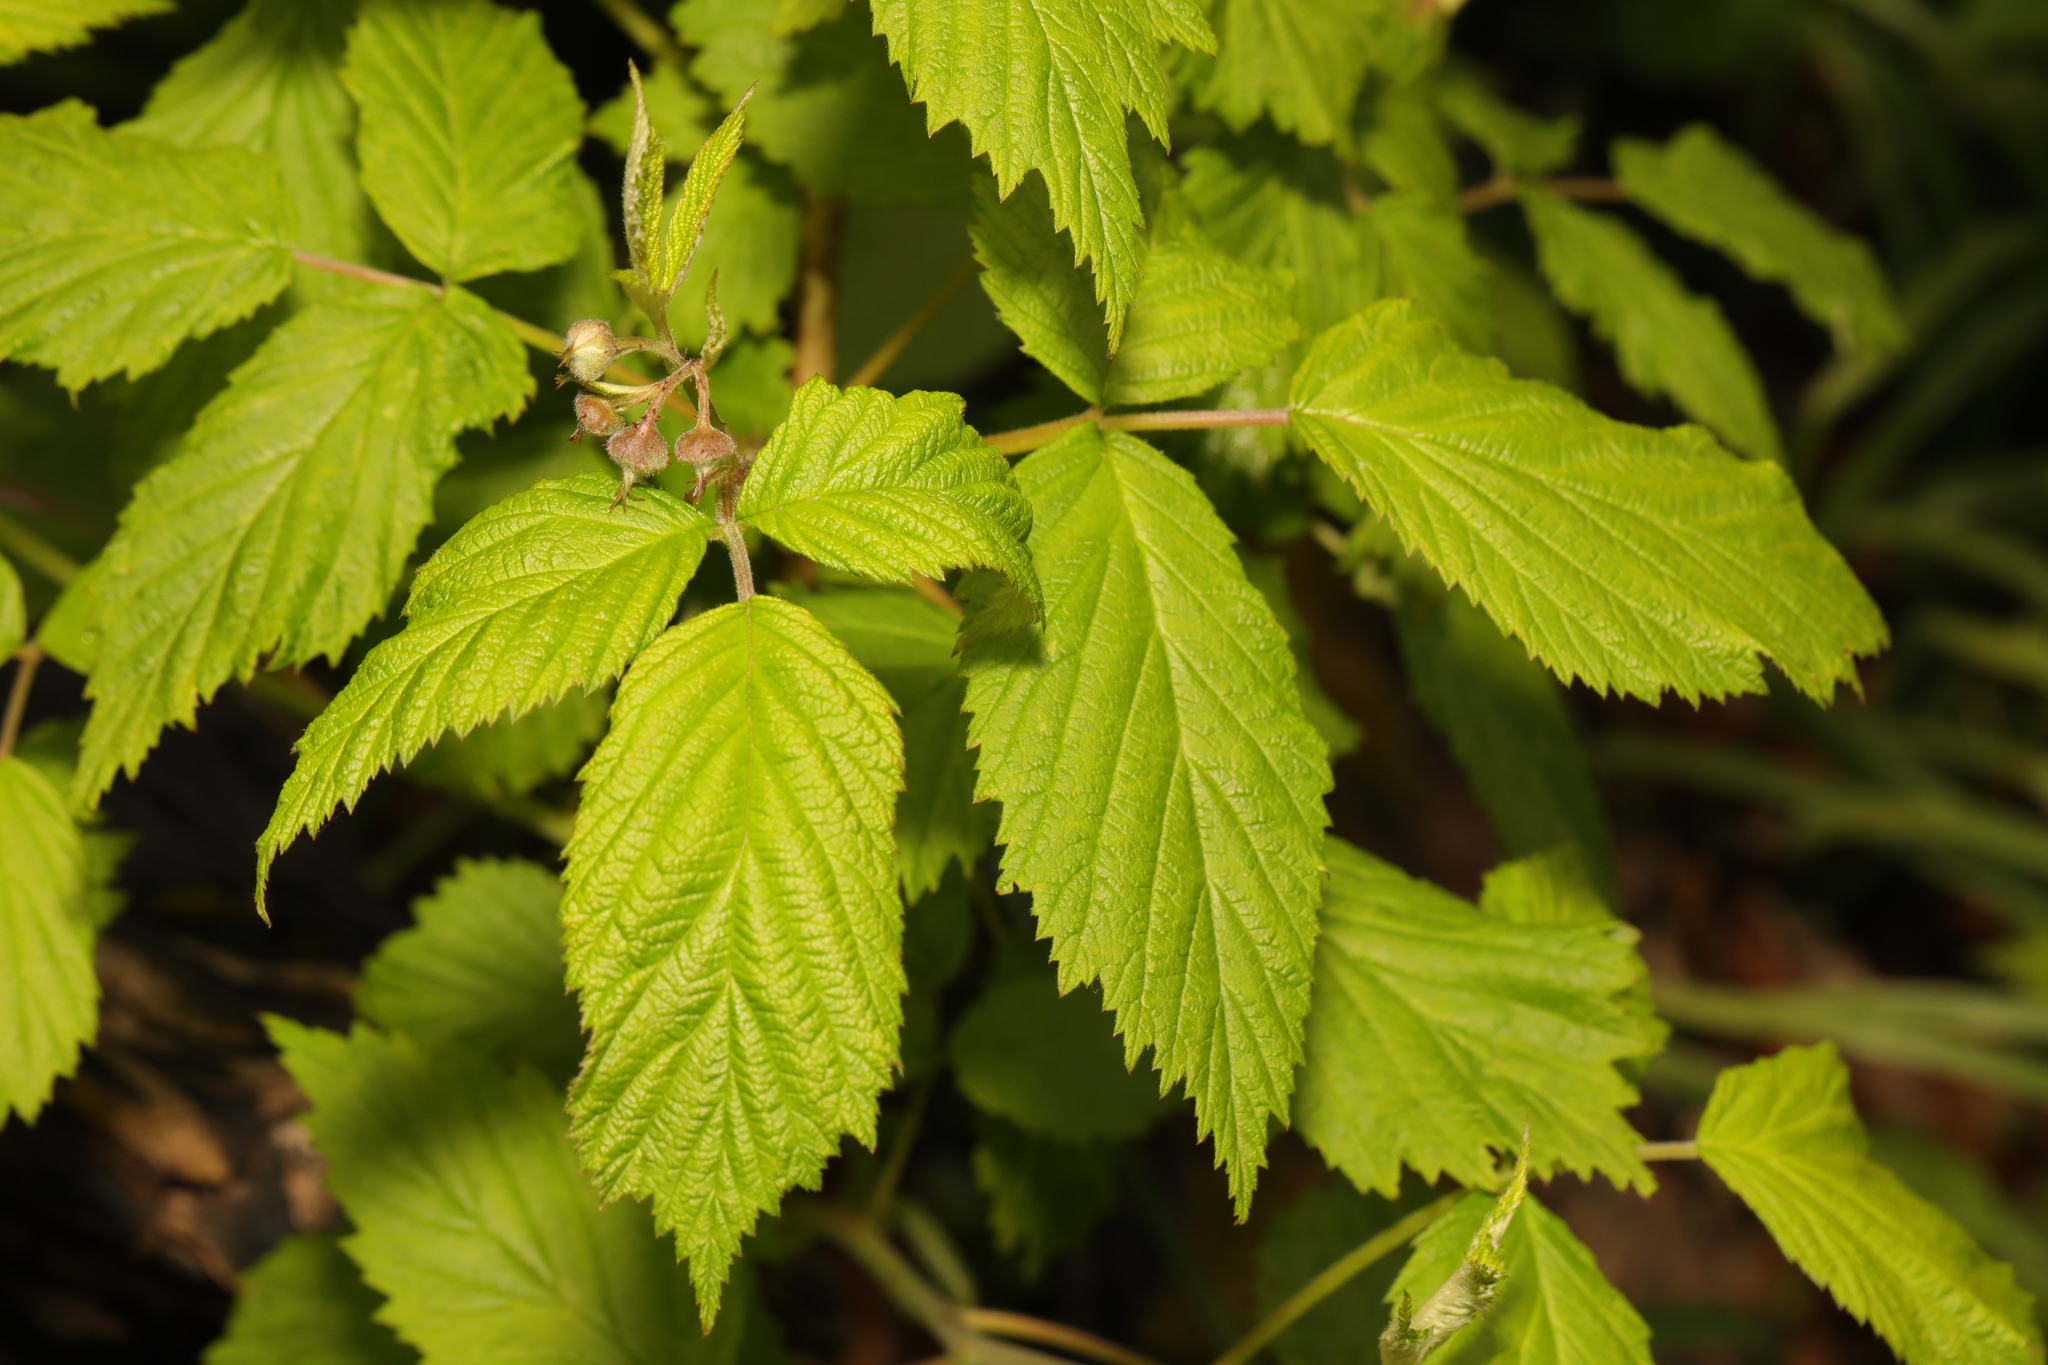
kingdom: Plantae
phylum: Tracheophyta
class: Magnoliopsida
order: Rosales
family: Rosaceae
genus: Rubus
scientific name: Rubus idaeus
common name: Raspberry
